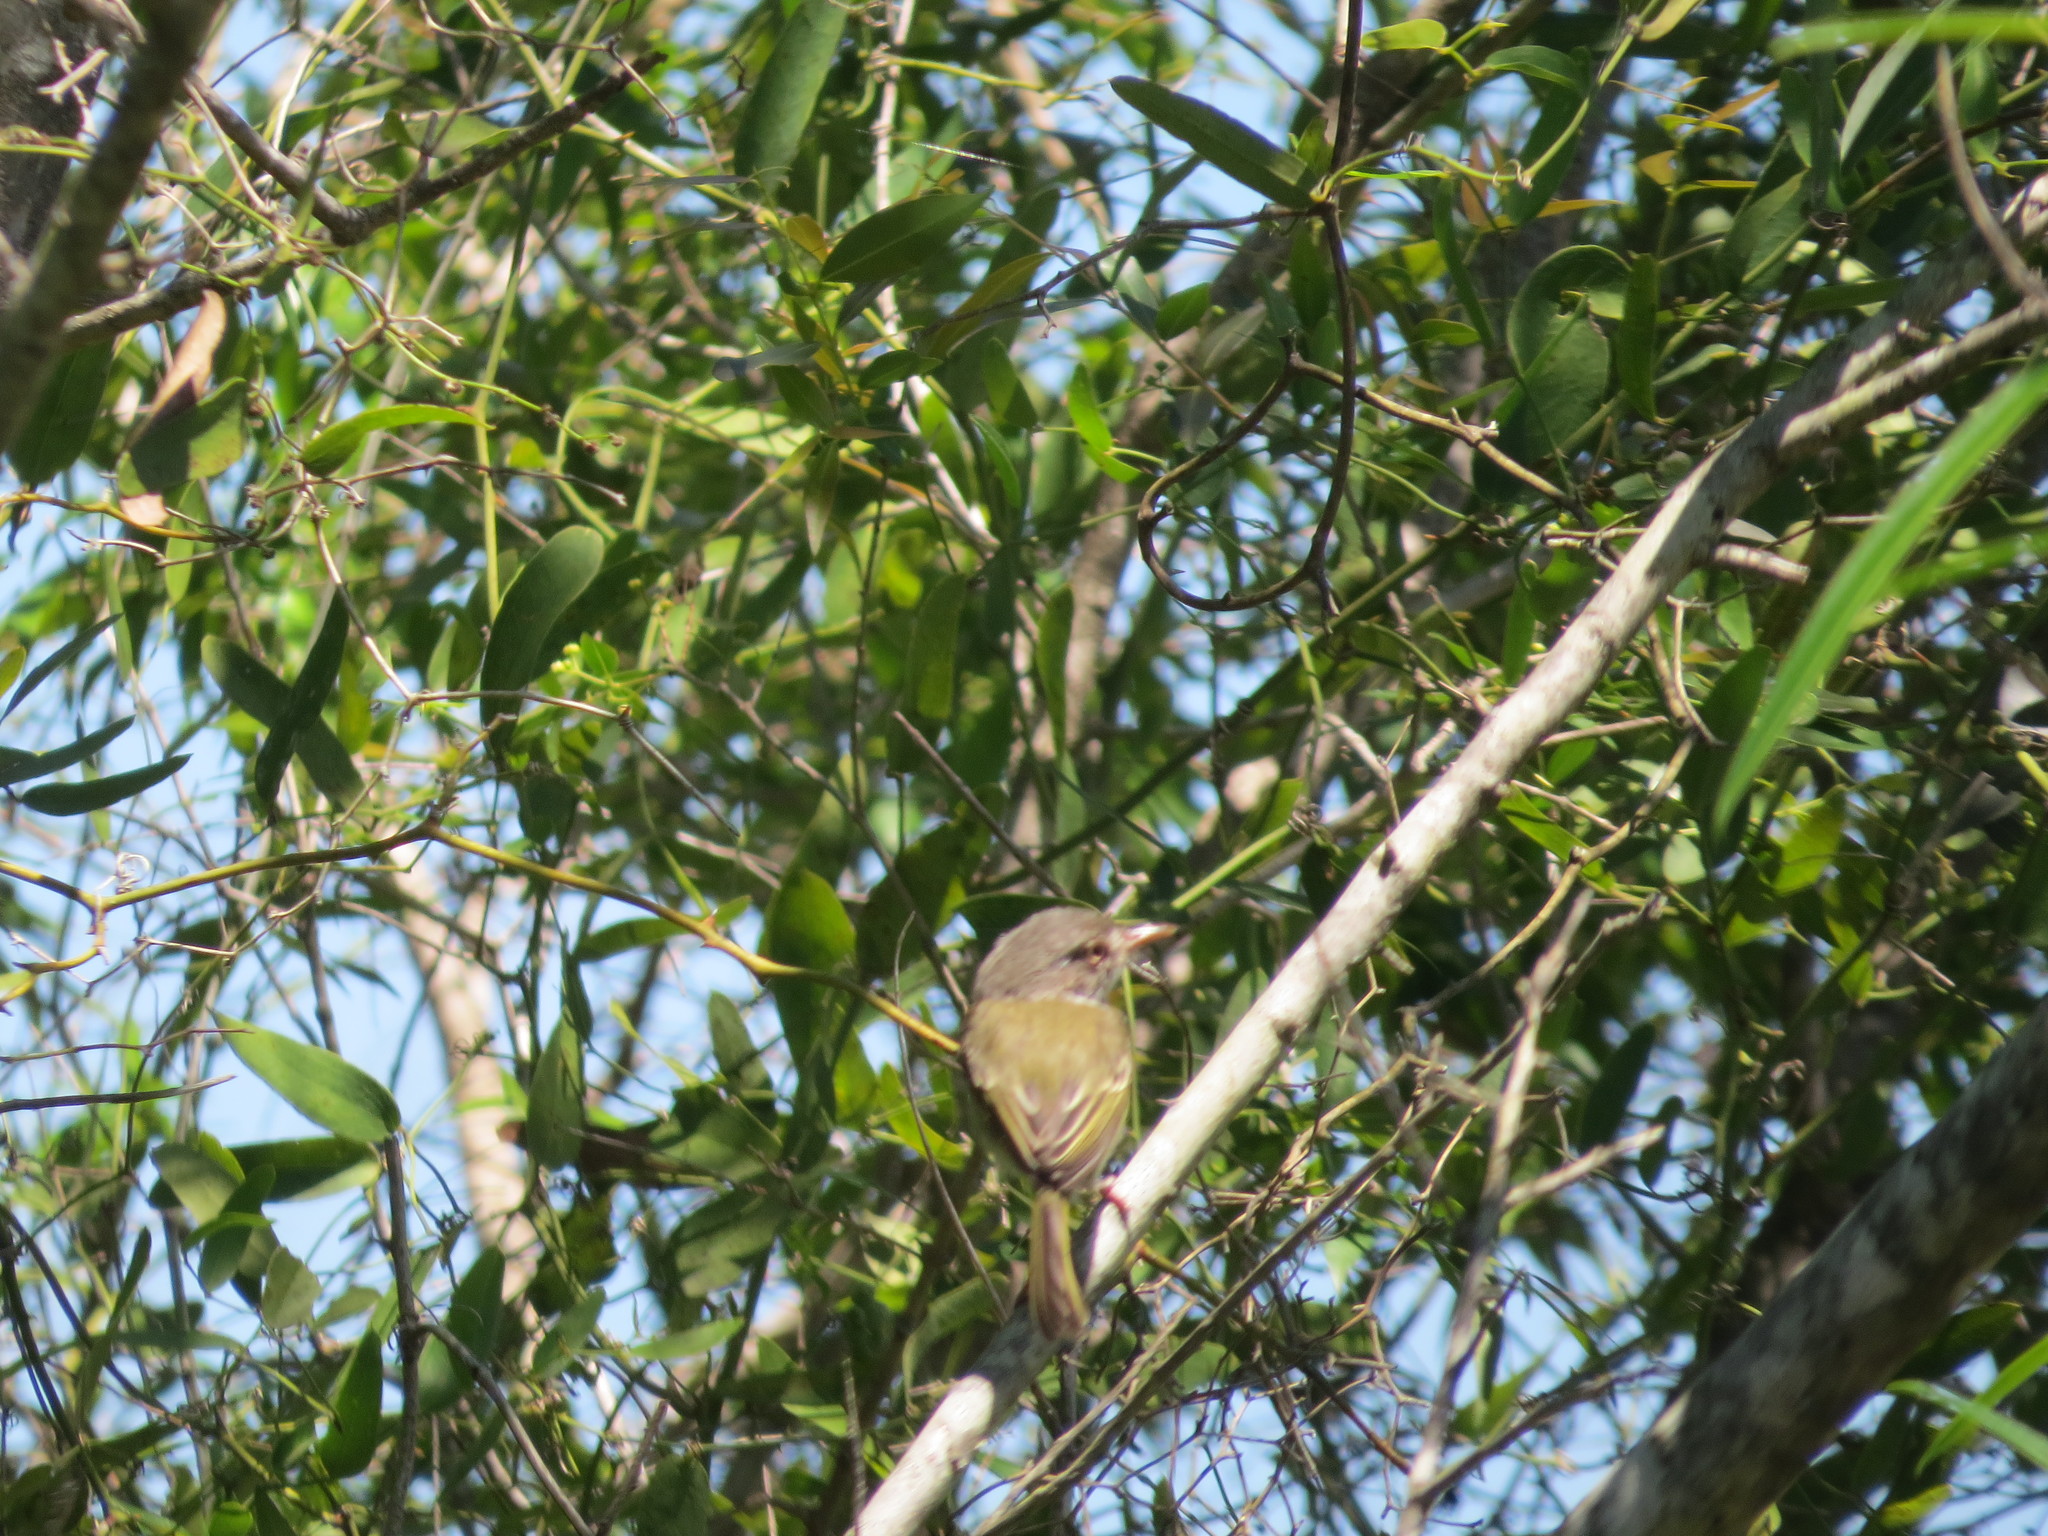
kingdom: Animalia
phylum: Chordata
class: Aves
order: Passeriformes
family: Tyrannidae
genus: Hemitriccus
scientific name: Hemitriccus margaritaceiventer
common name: Pearly-vented tody-tyrant
